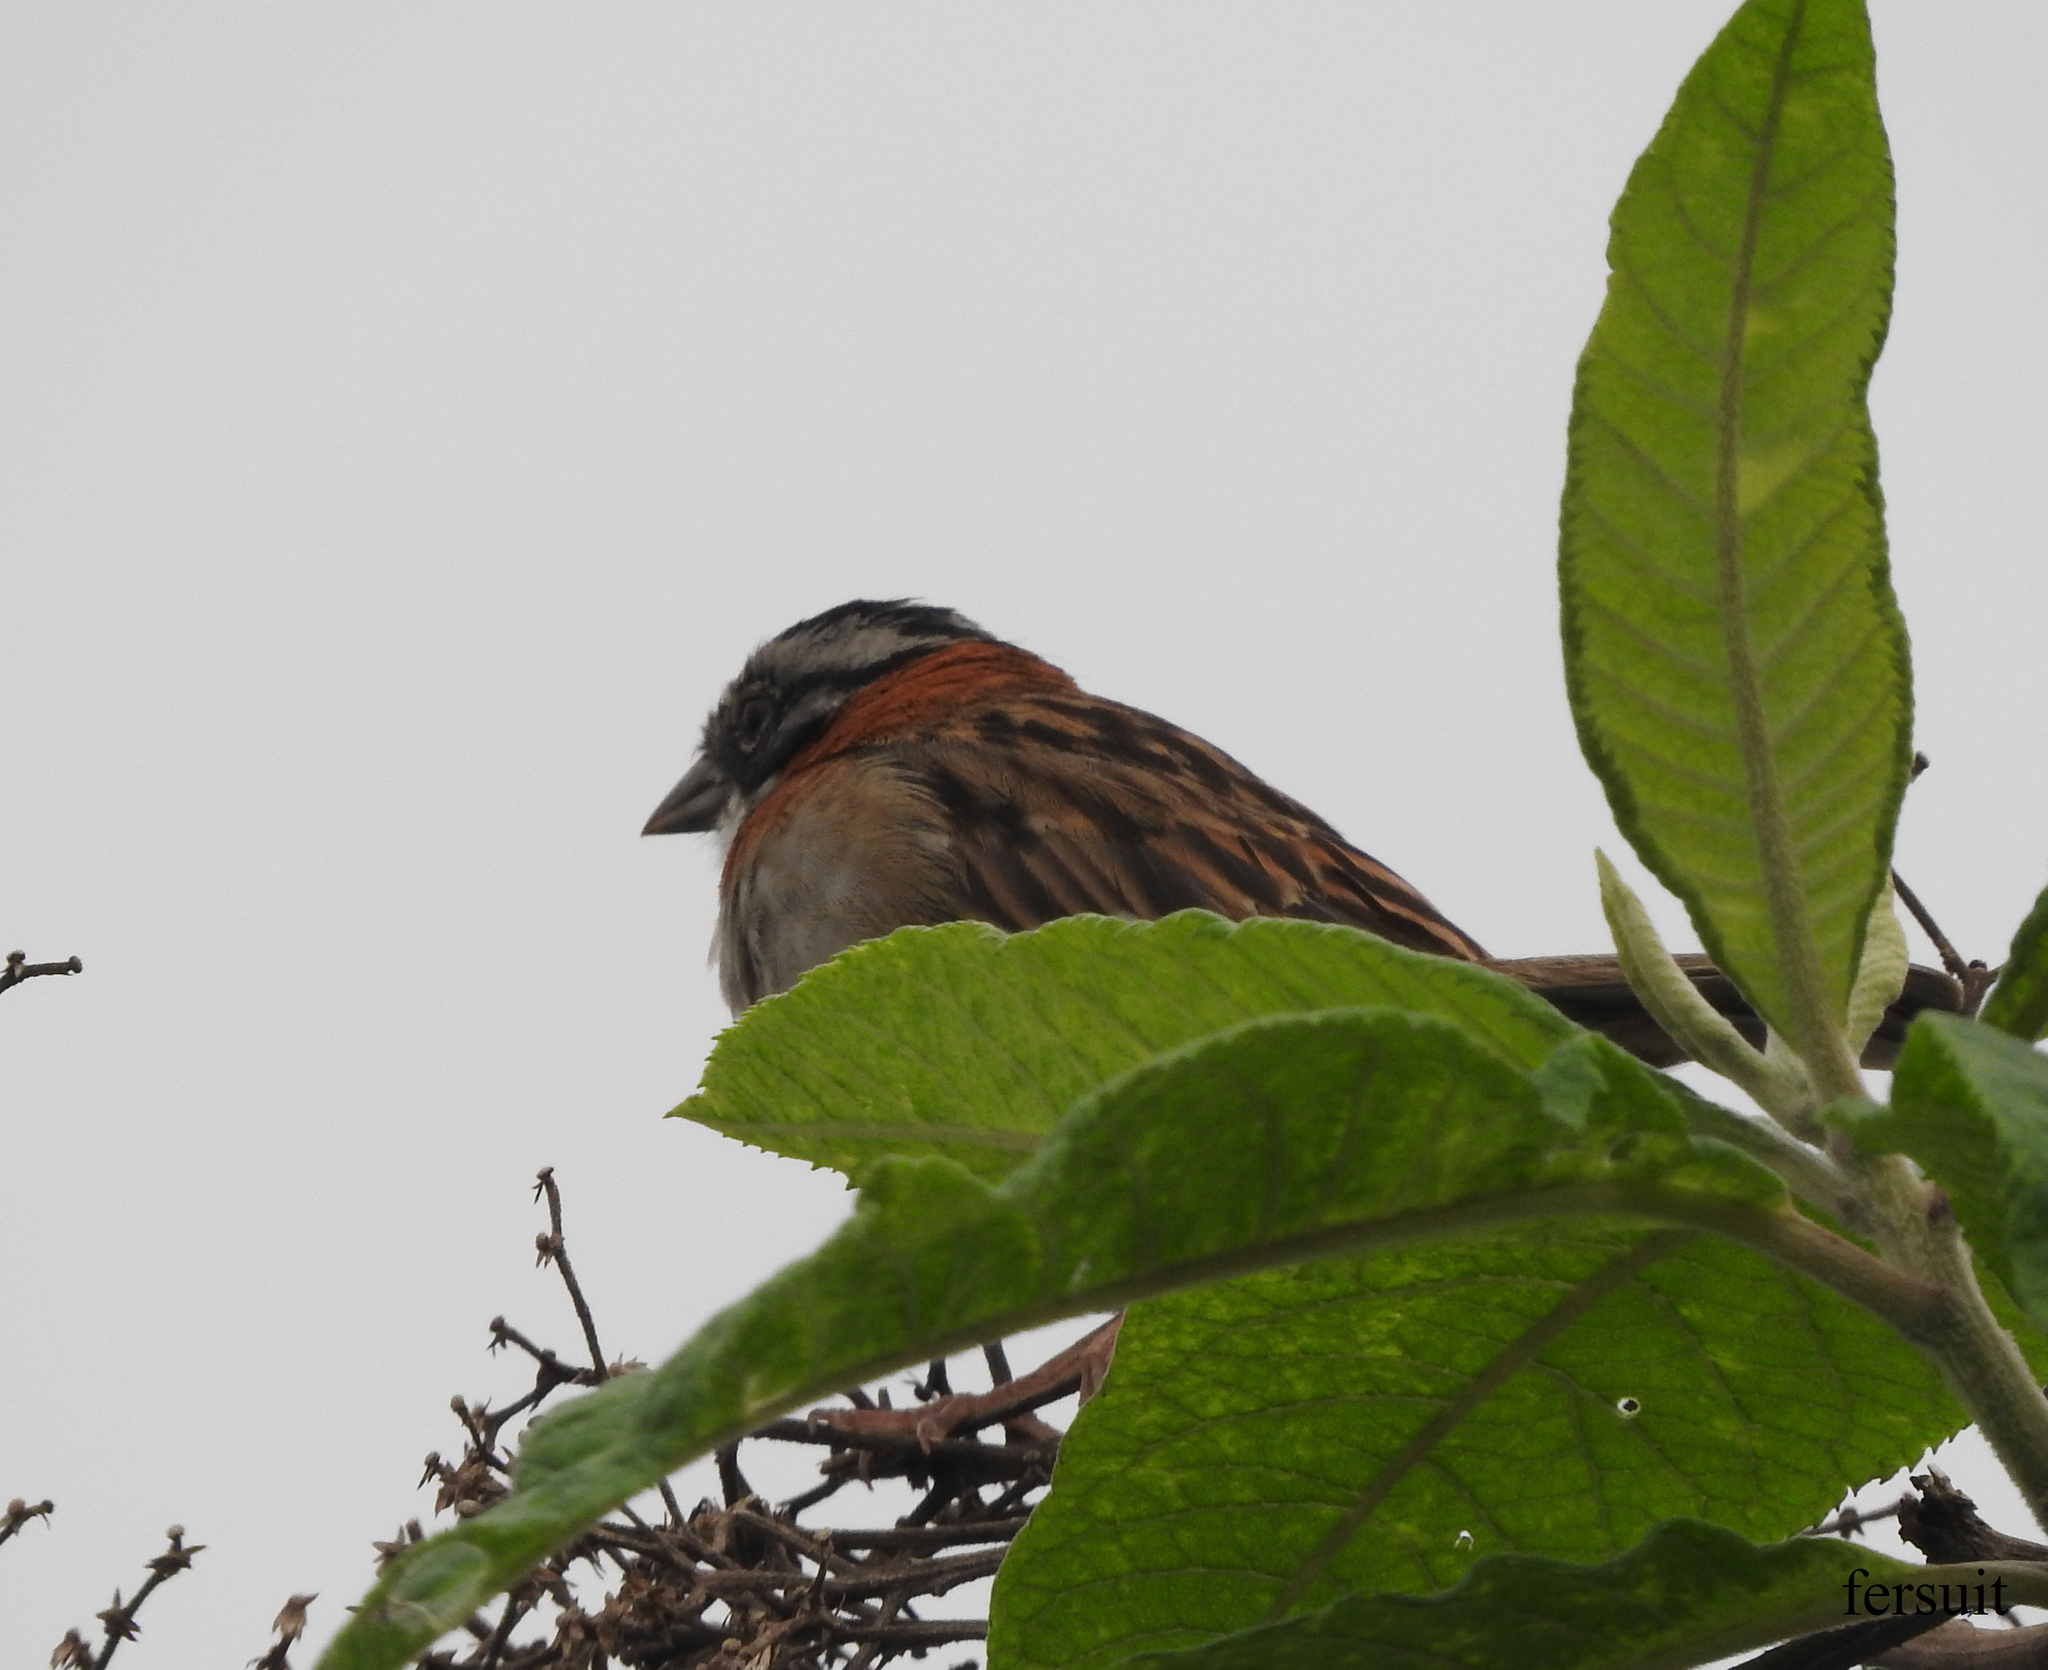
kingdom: Animalia
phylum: Chordata
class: Aves
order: Passeriformes
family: Passerellidae
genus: Zonotrichia
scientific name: Zonotrichia capensis
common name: Rufous-collared sparrow
